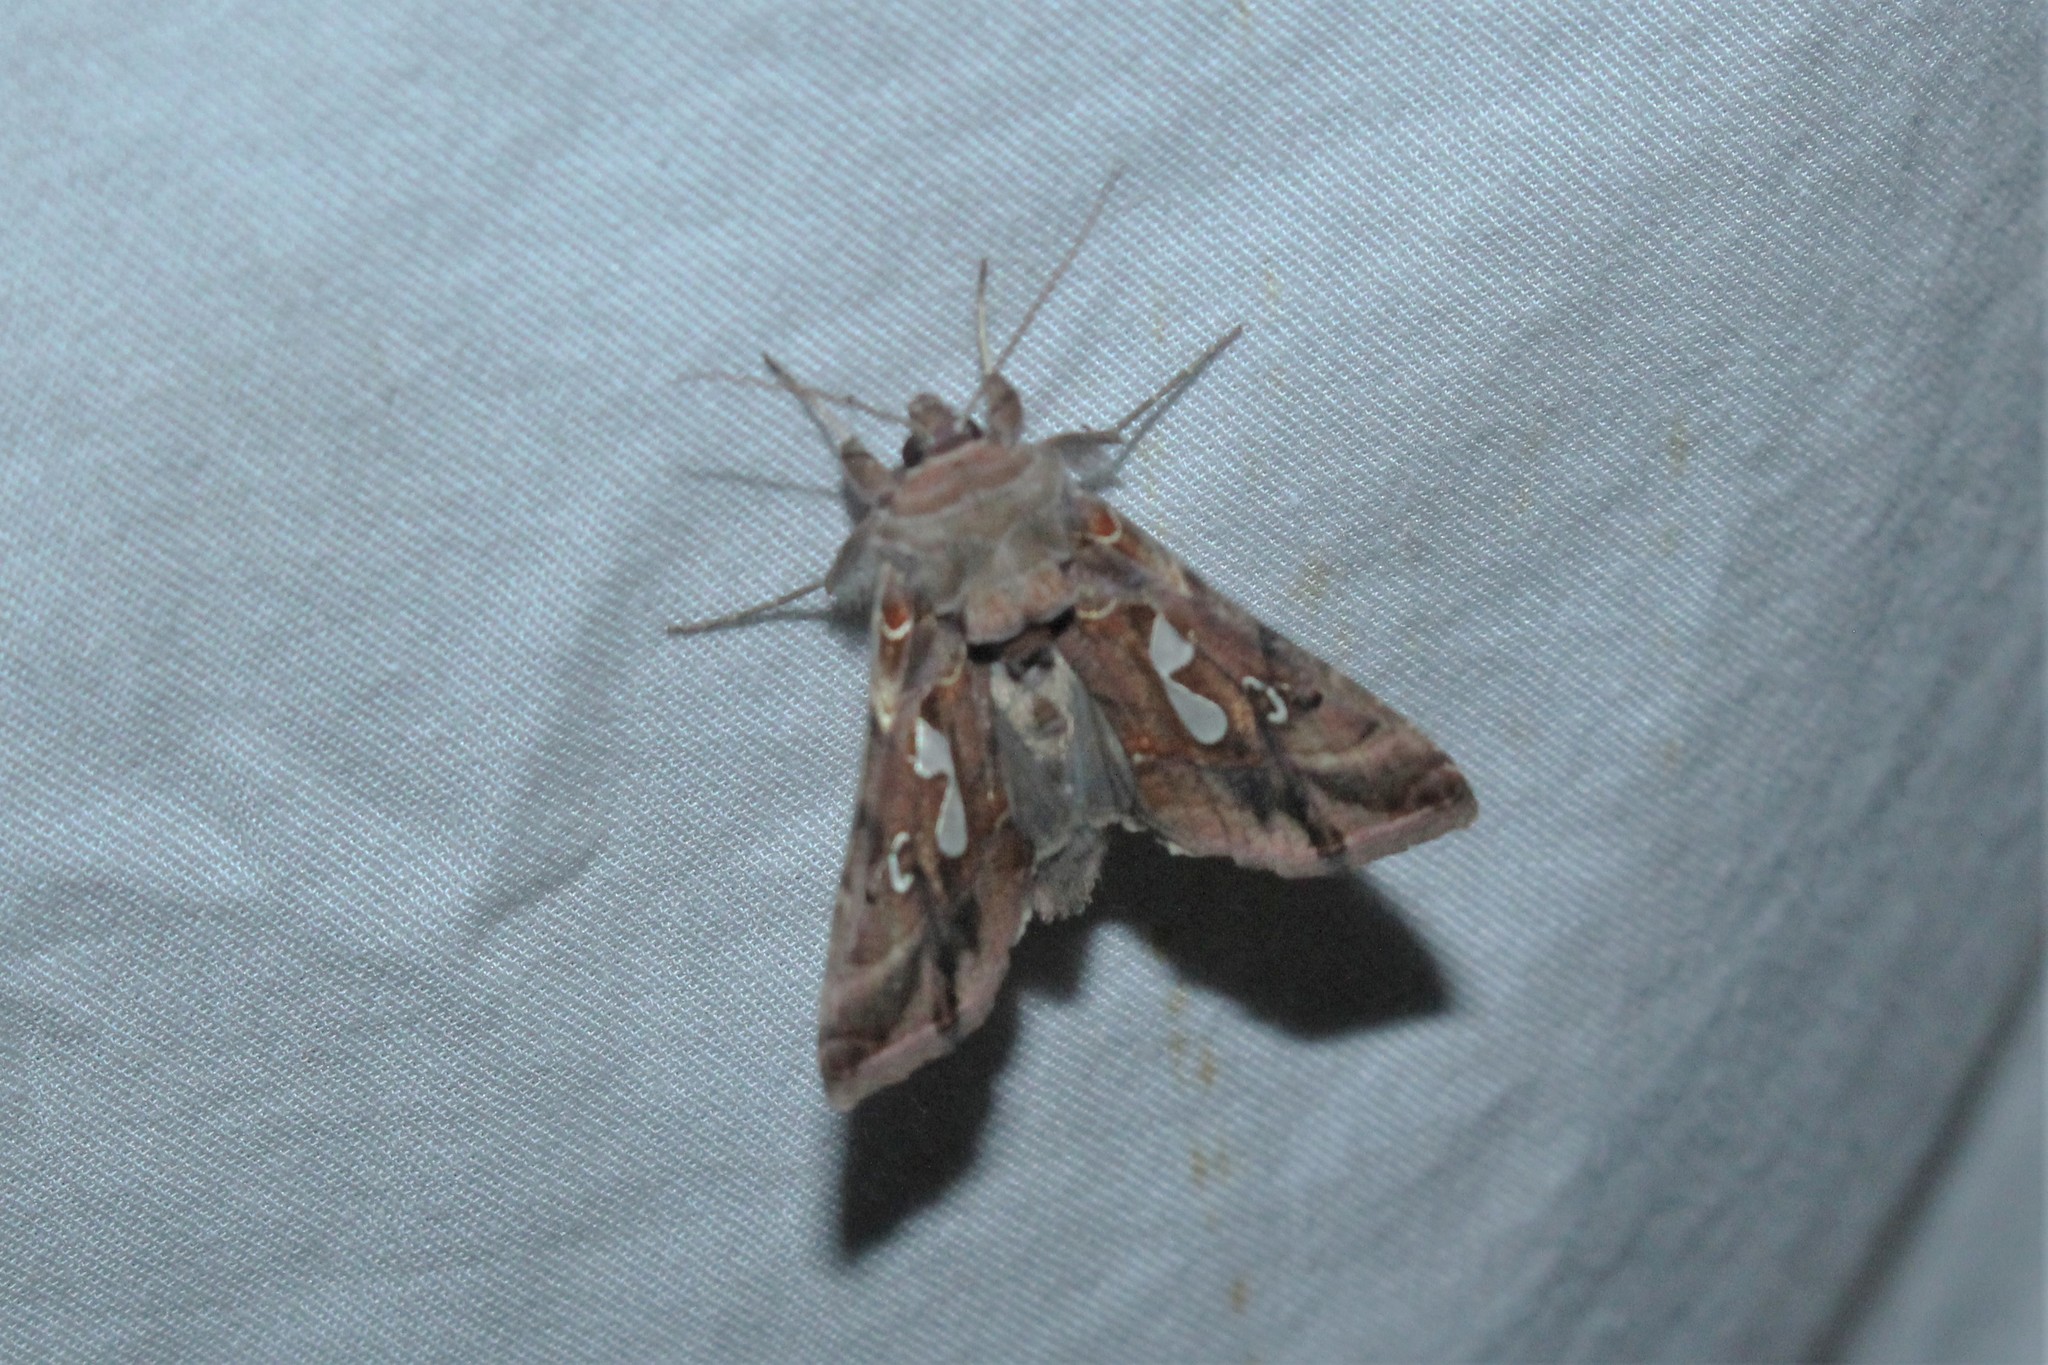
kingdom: Animalia
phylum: Arthropoda
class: Insecta
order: Lepidoptera
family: Noctuidae
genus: Megalographa
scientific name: Megalographa biloba
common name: Cutworm
